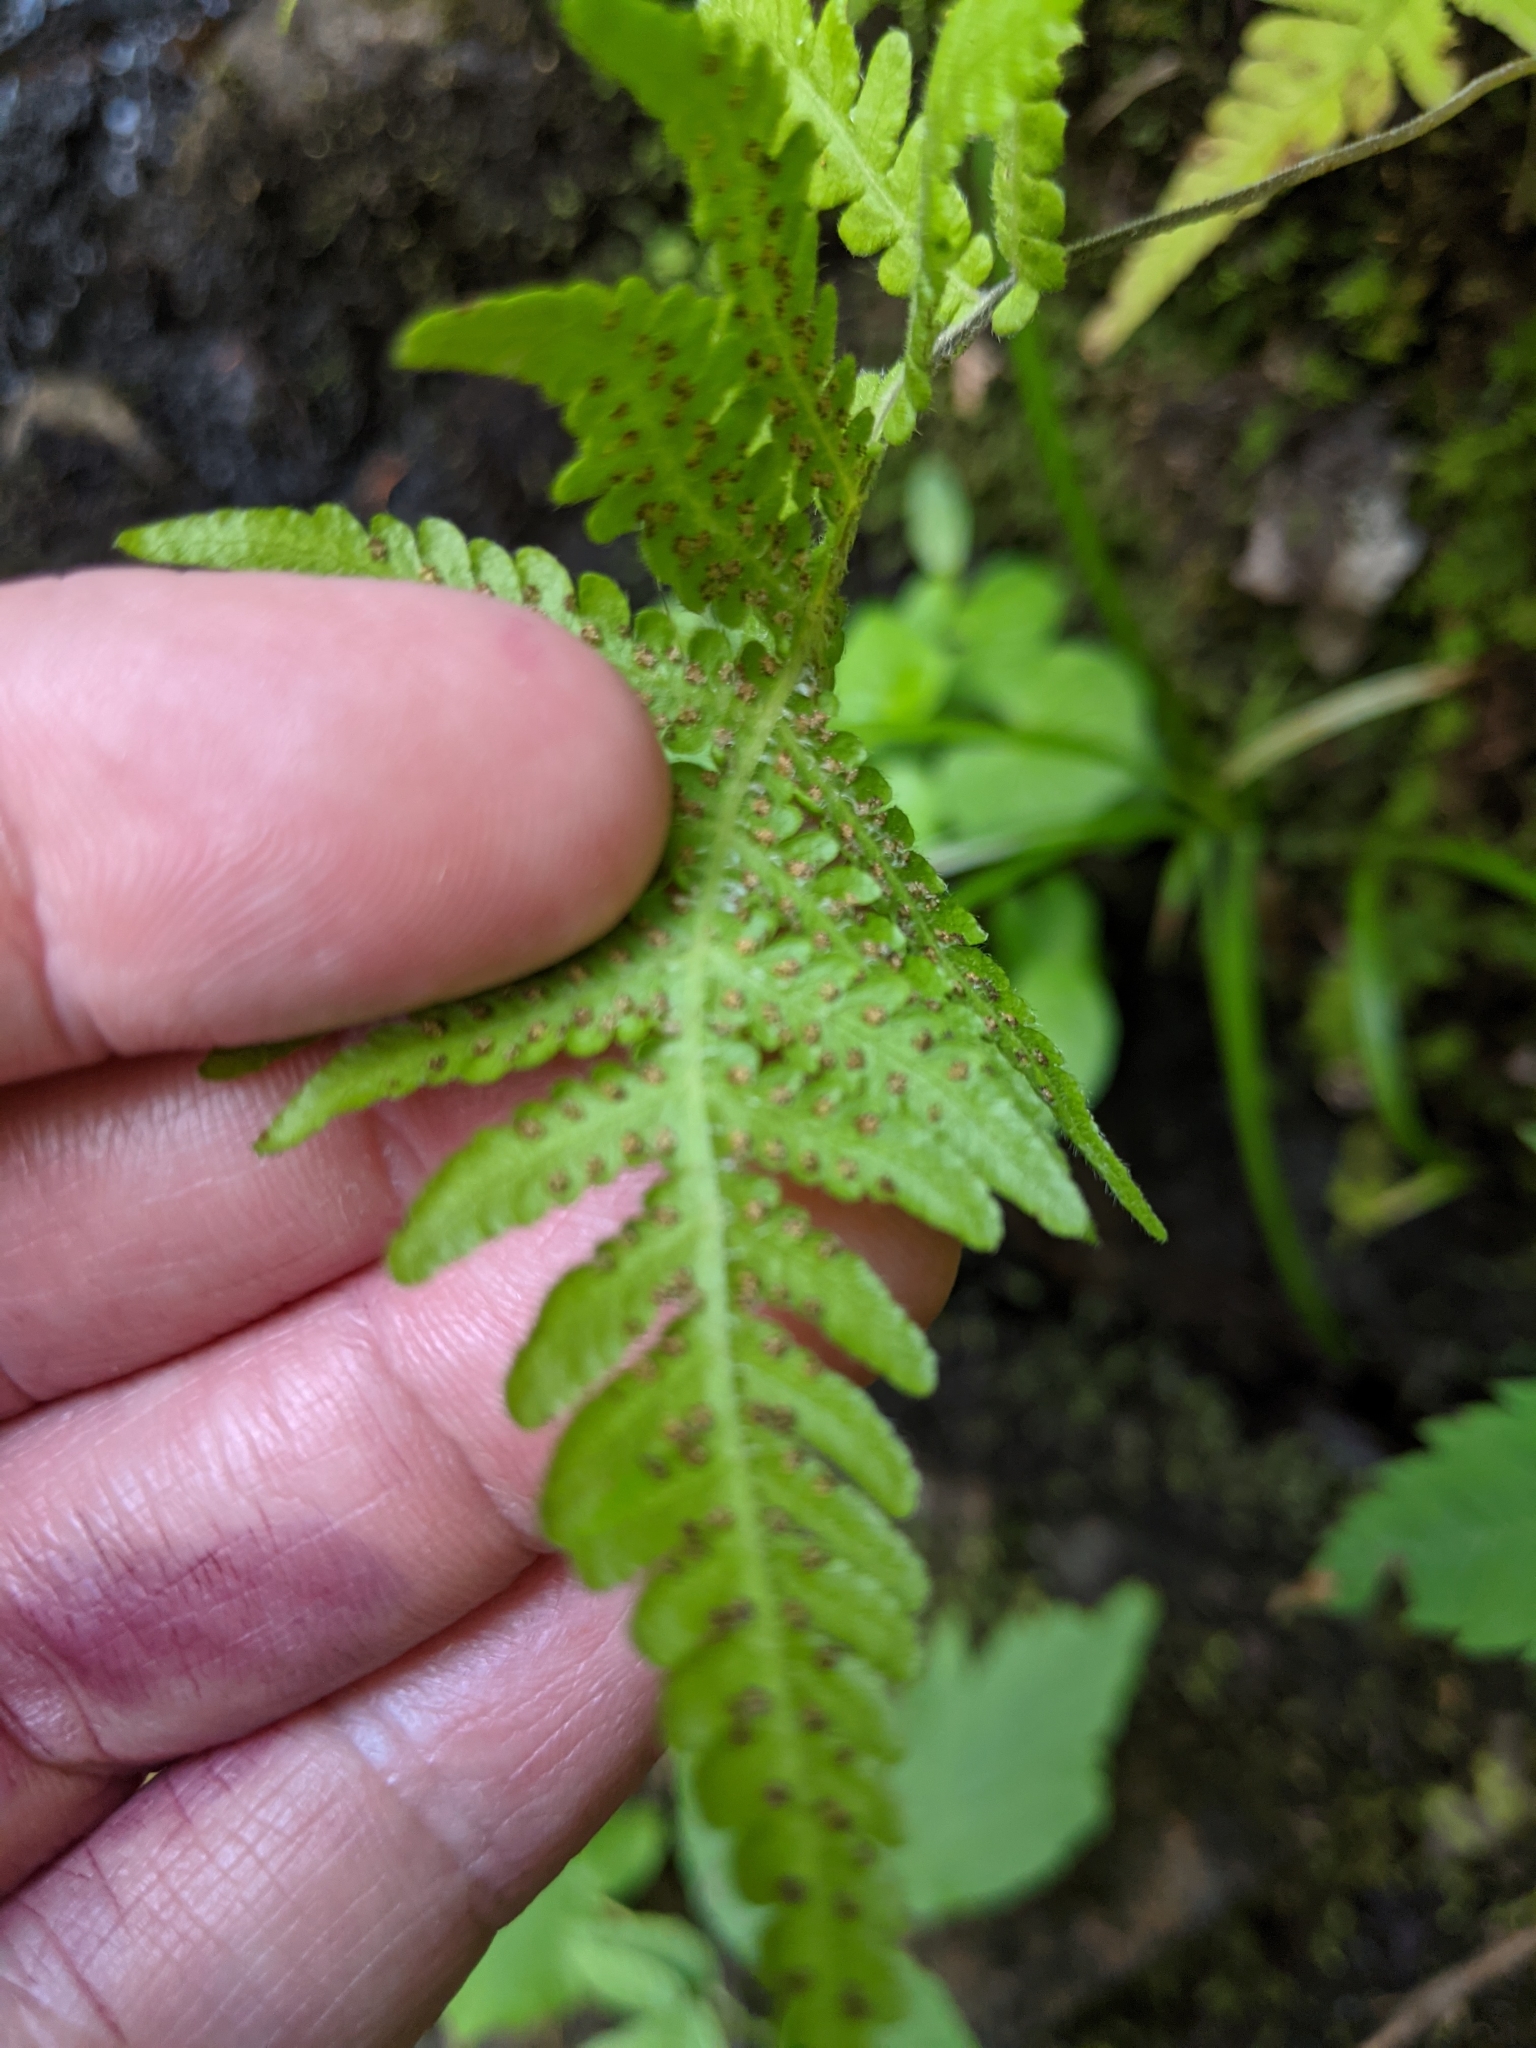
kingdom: Plantae
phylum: Tracheophyta
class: Polypodiopsida
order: Polypodiales
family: Thelypteridaceae
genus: Phegopteris
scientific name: Phegopteris connectilis
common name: Beech fern
